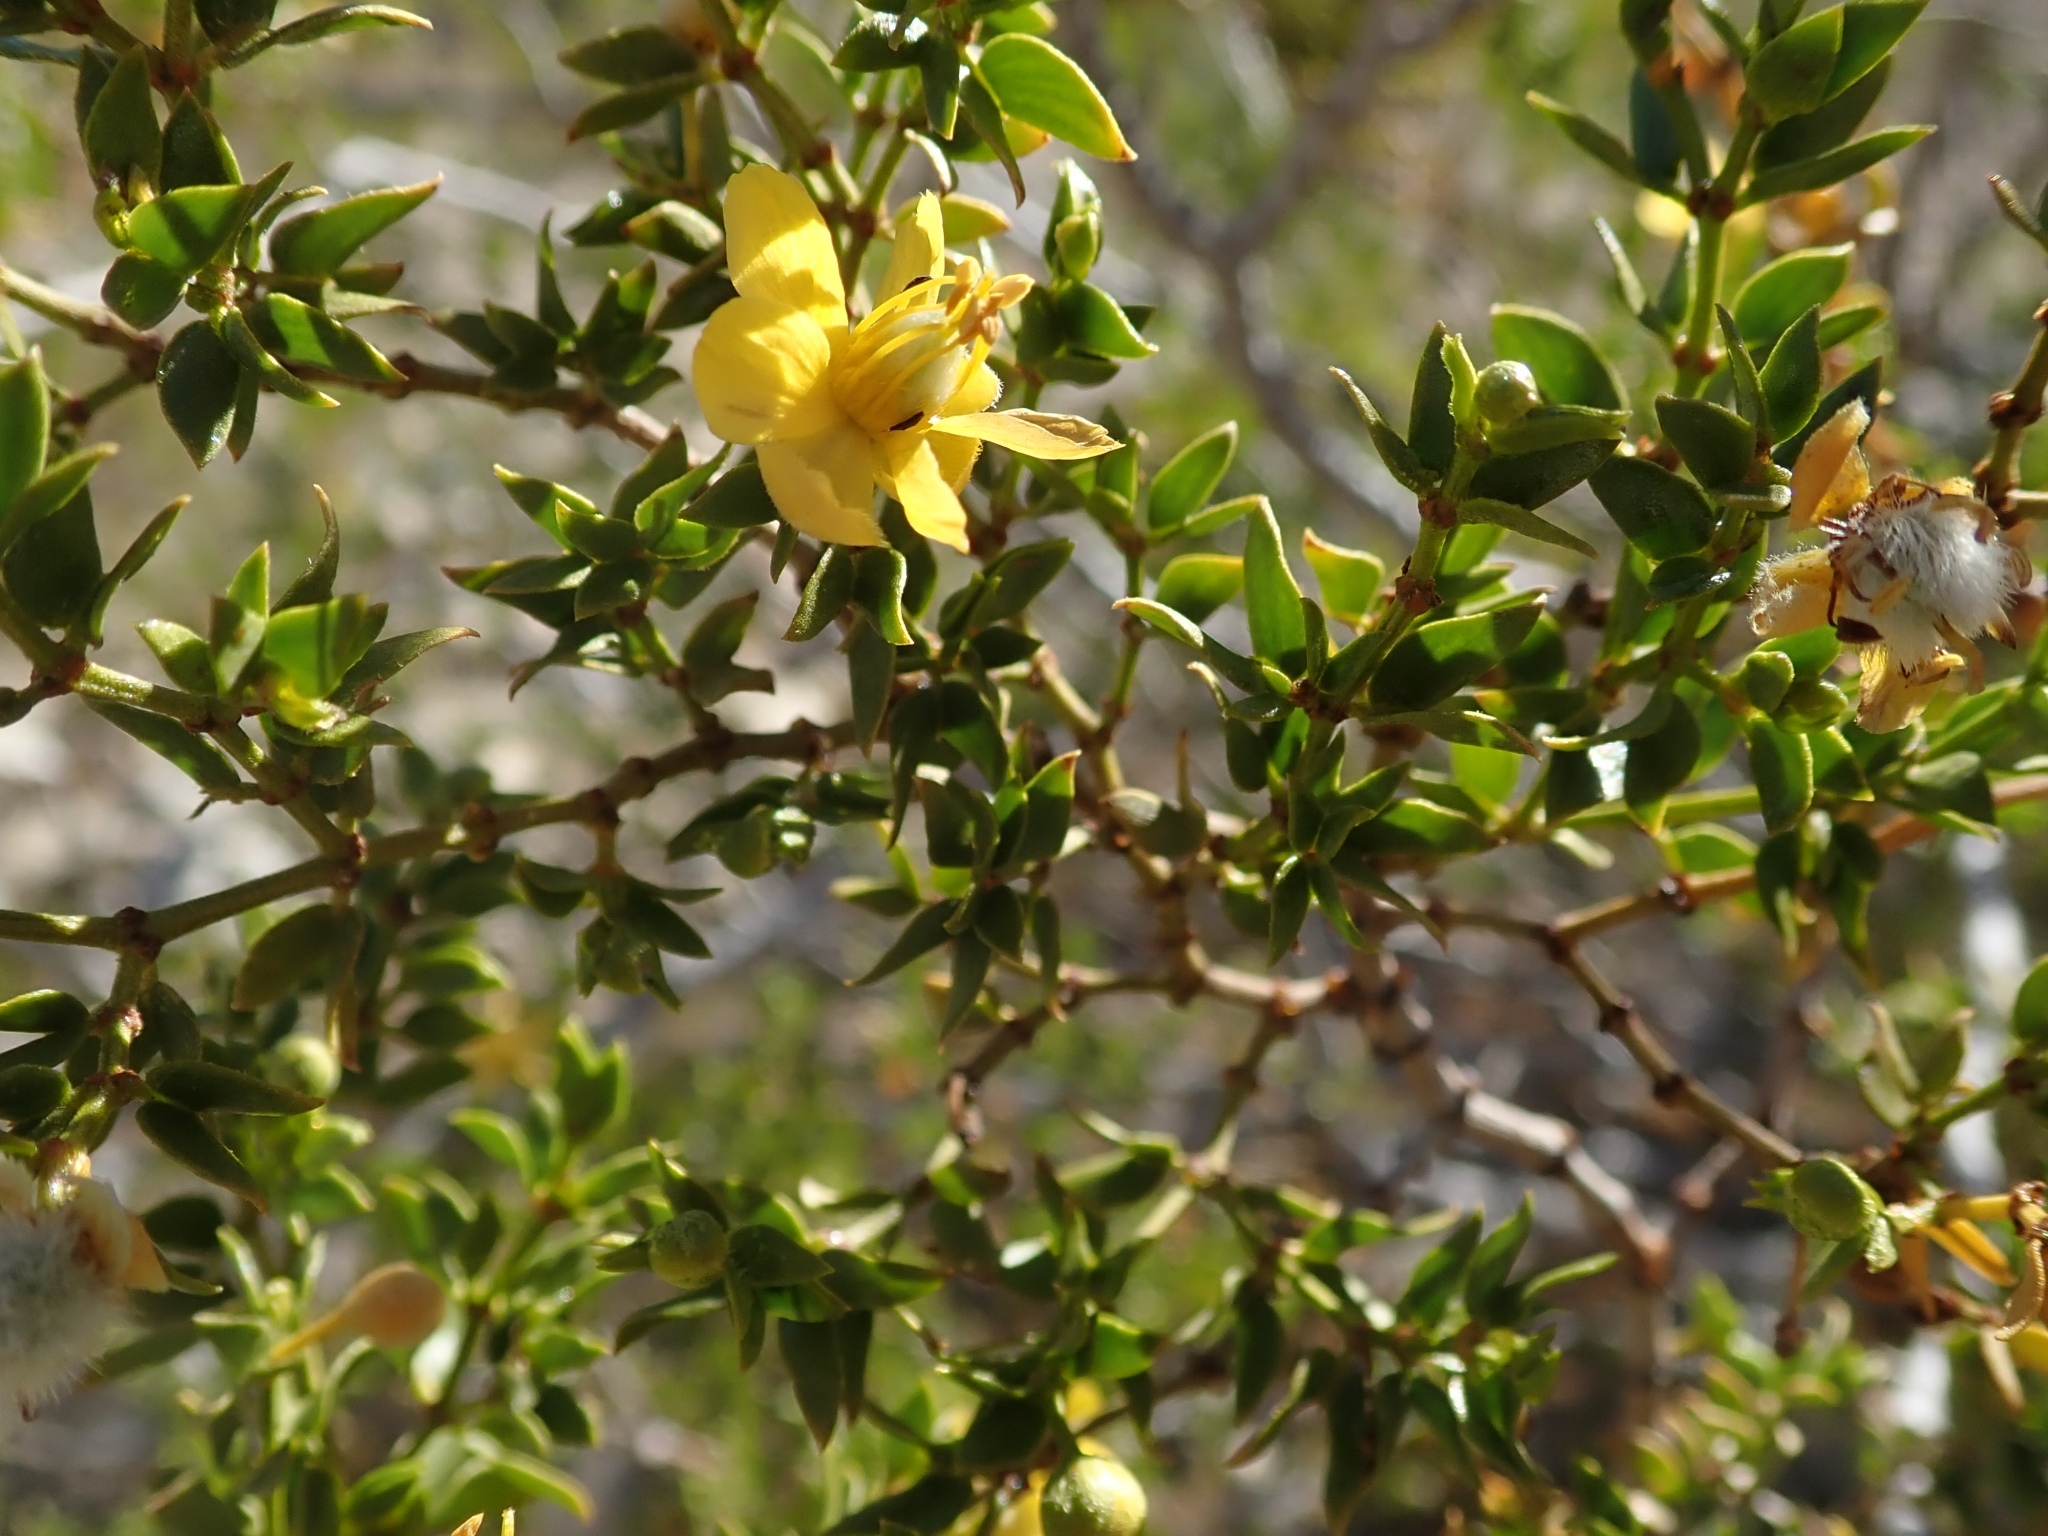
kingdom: Plantae
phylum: Tracheophyta
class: Magnoliopsida
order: Zygophyllales
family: Zygophyllaceae
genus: Larrea
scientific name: Larrea tridentata
